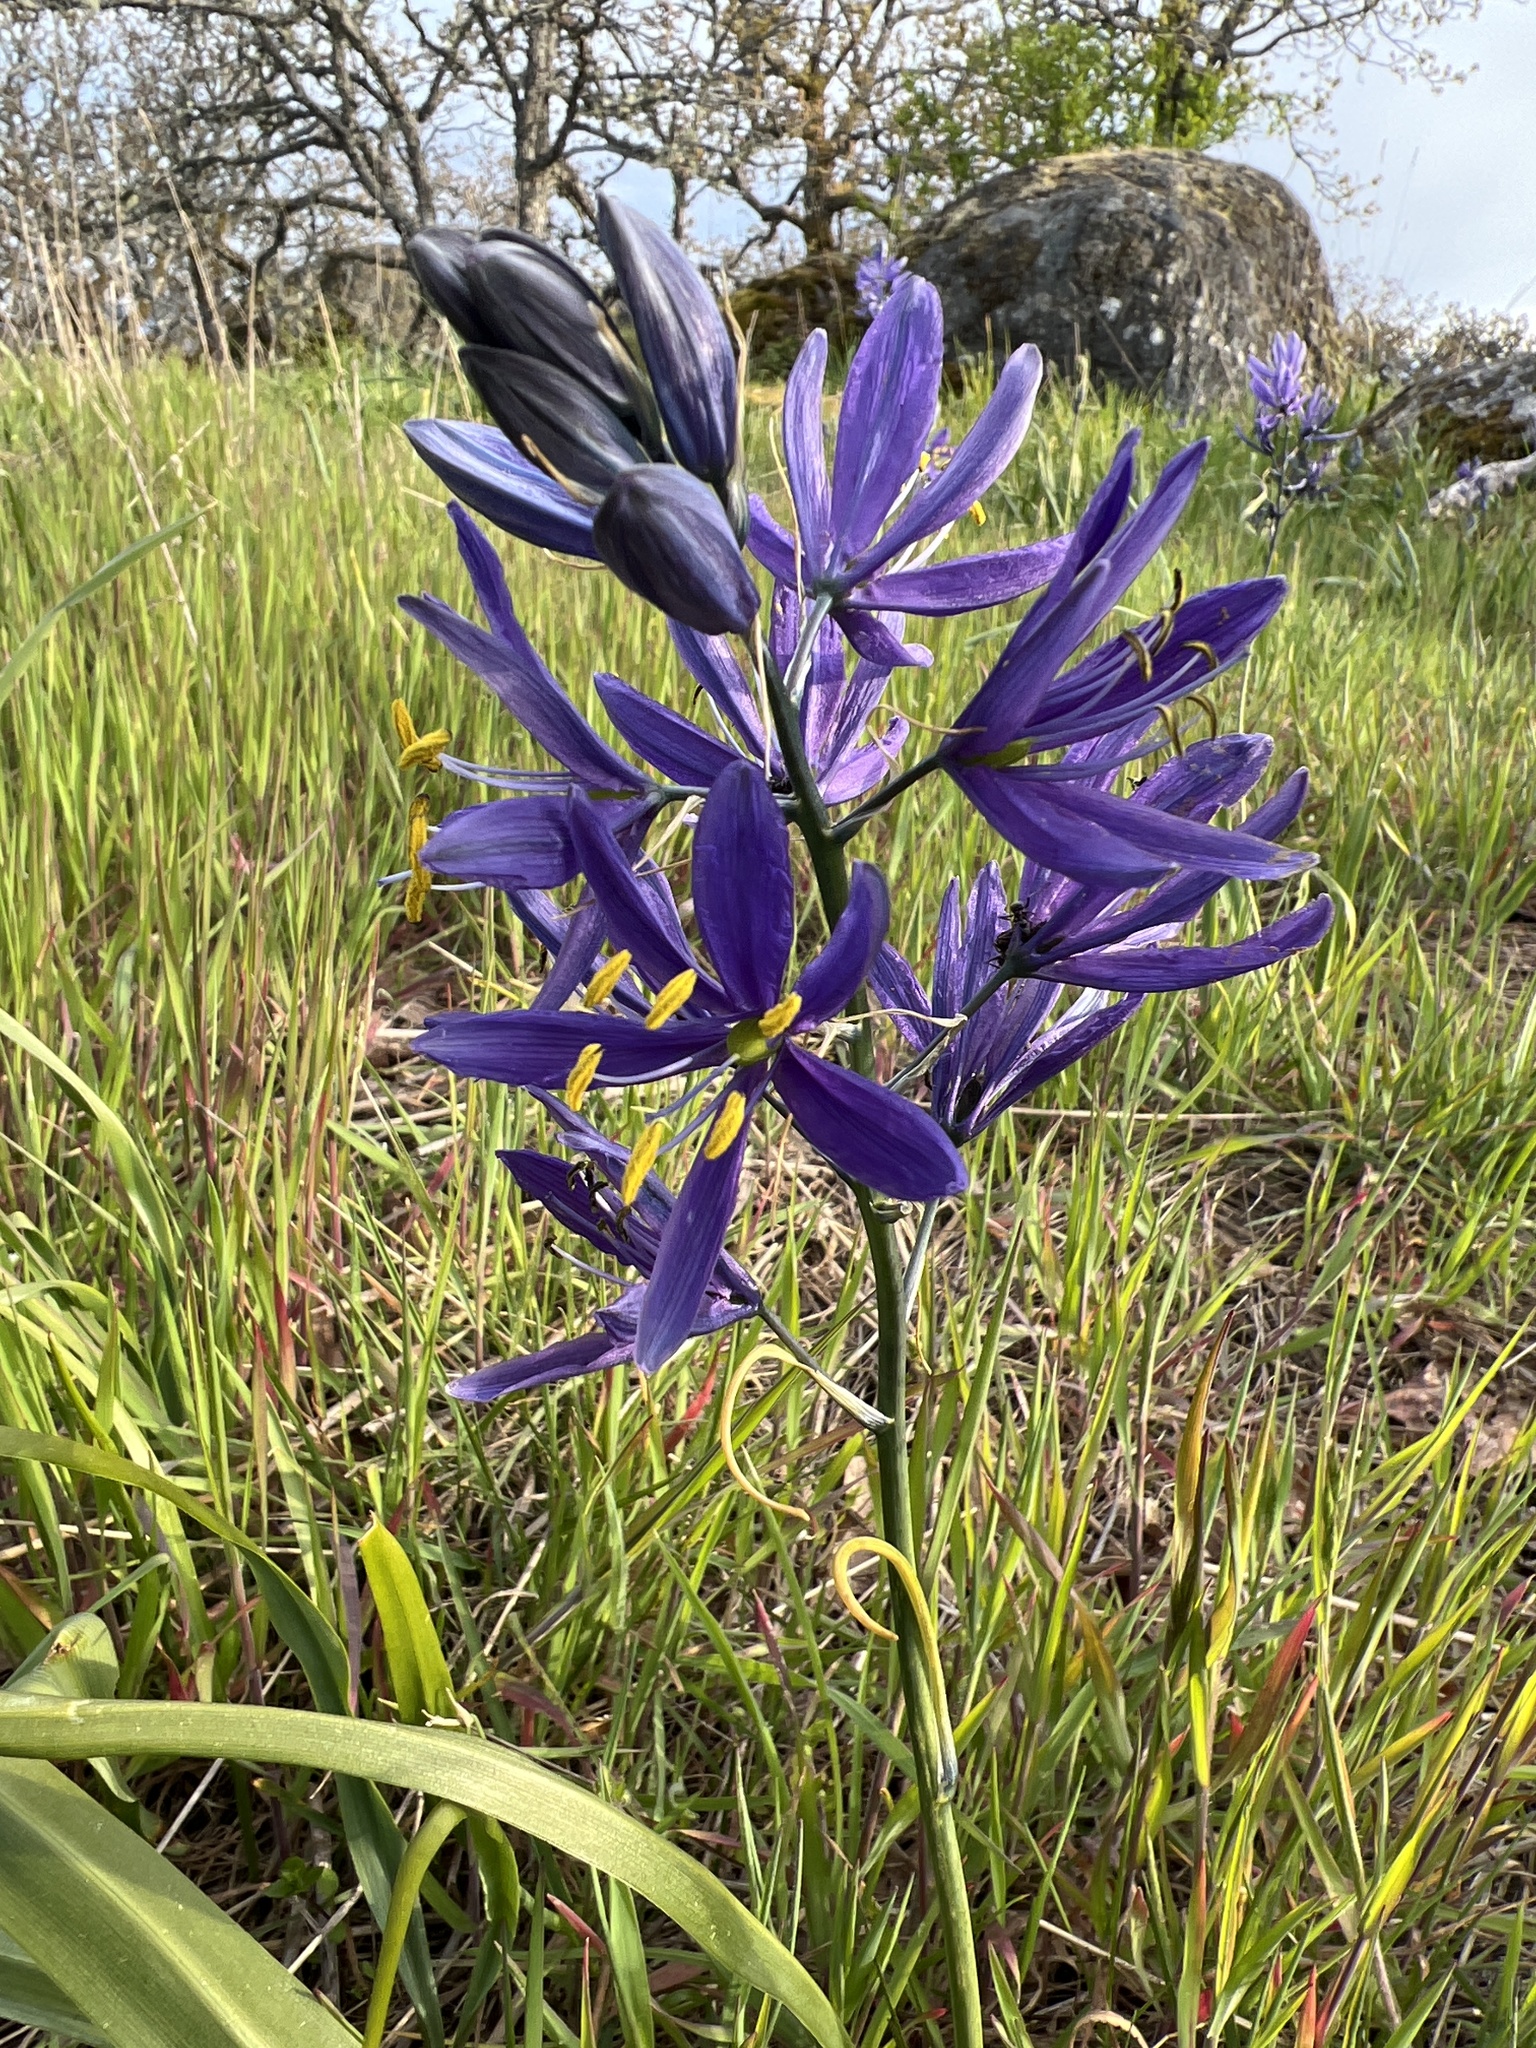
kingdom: Plantae
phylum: Tracheophyta
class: Liliopsida
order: Asparagales
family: Asparagaceae
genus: Camassia
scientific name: Camassia quamash
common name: Common camas
